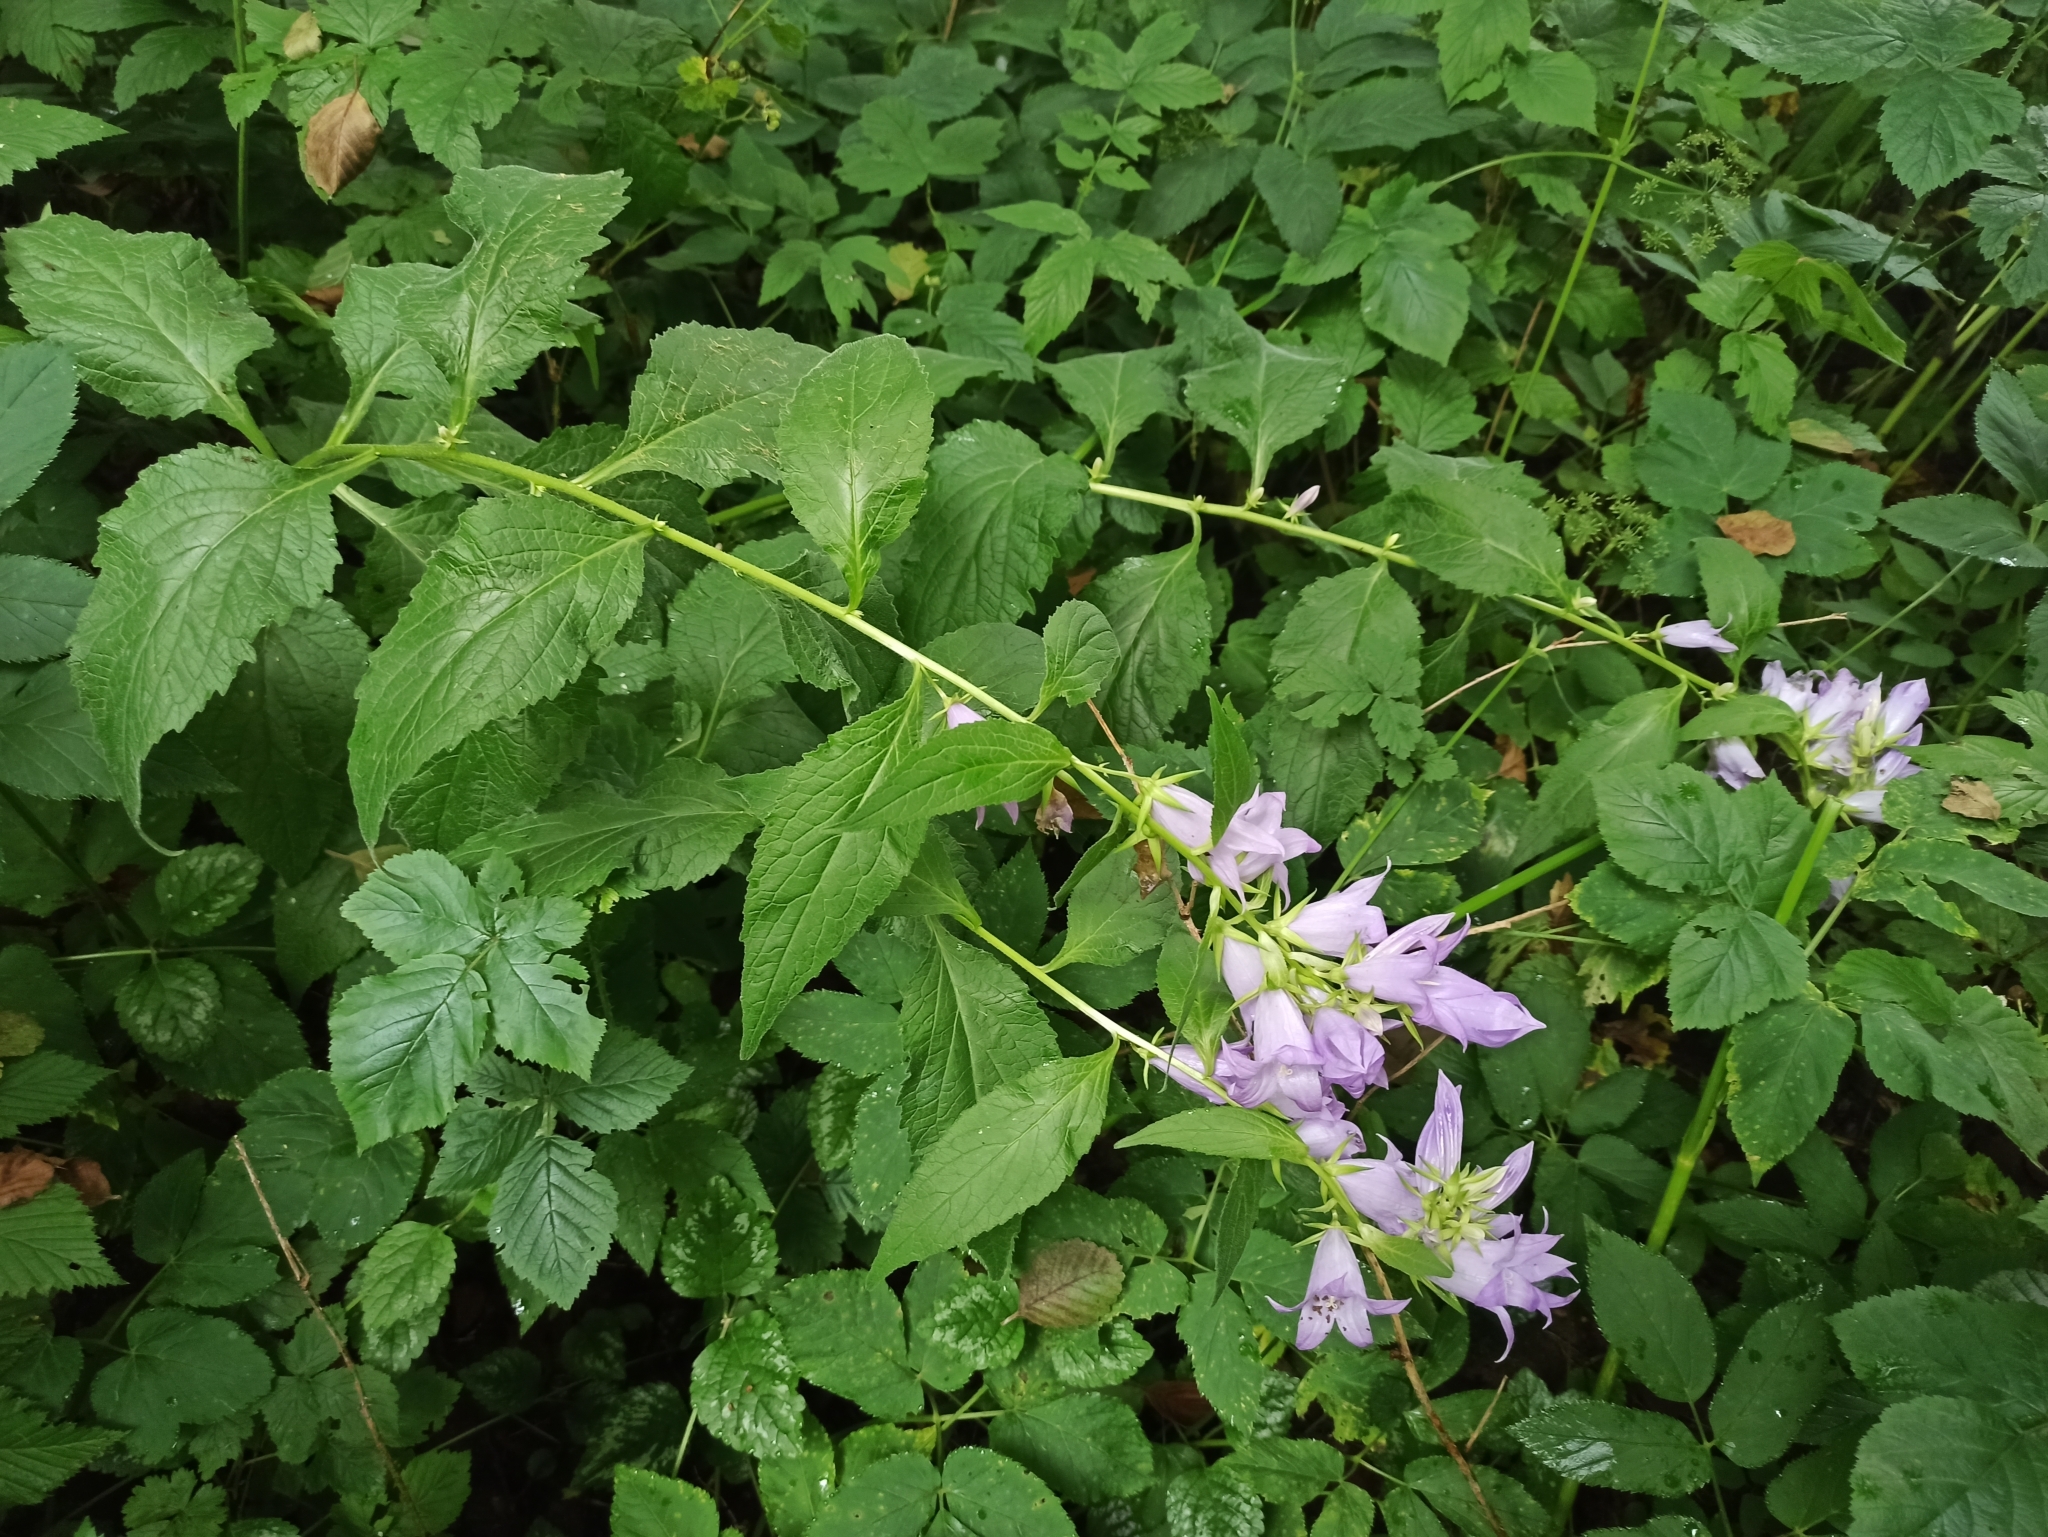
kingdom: Plantae
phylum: Tracheophyta
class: Magnoliopsida
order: Asterales
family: Campanulaceae
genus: Campanula
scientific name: Campanula latifolia
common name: Giant bellflower
